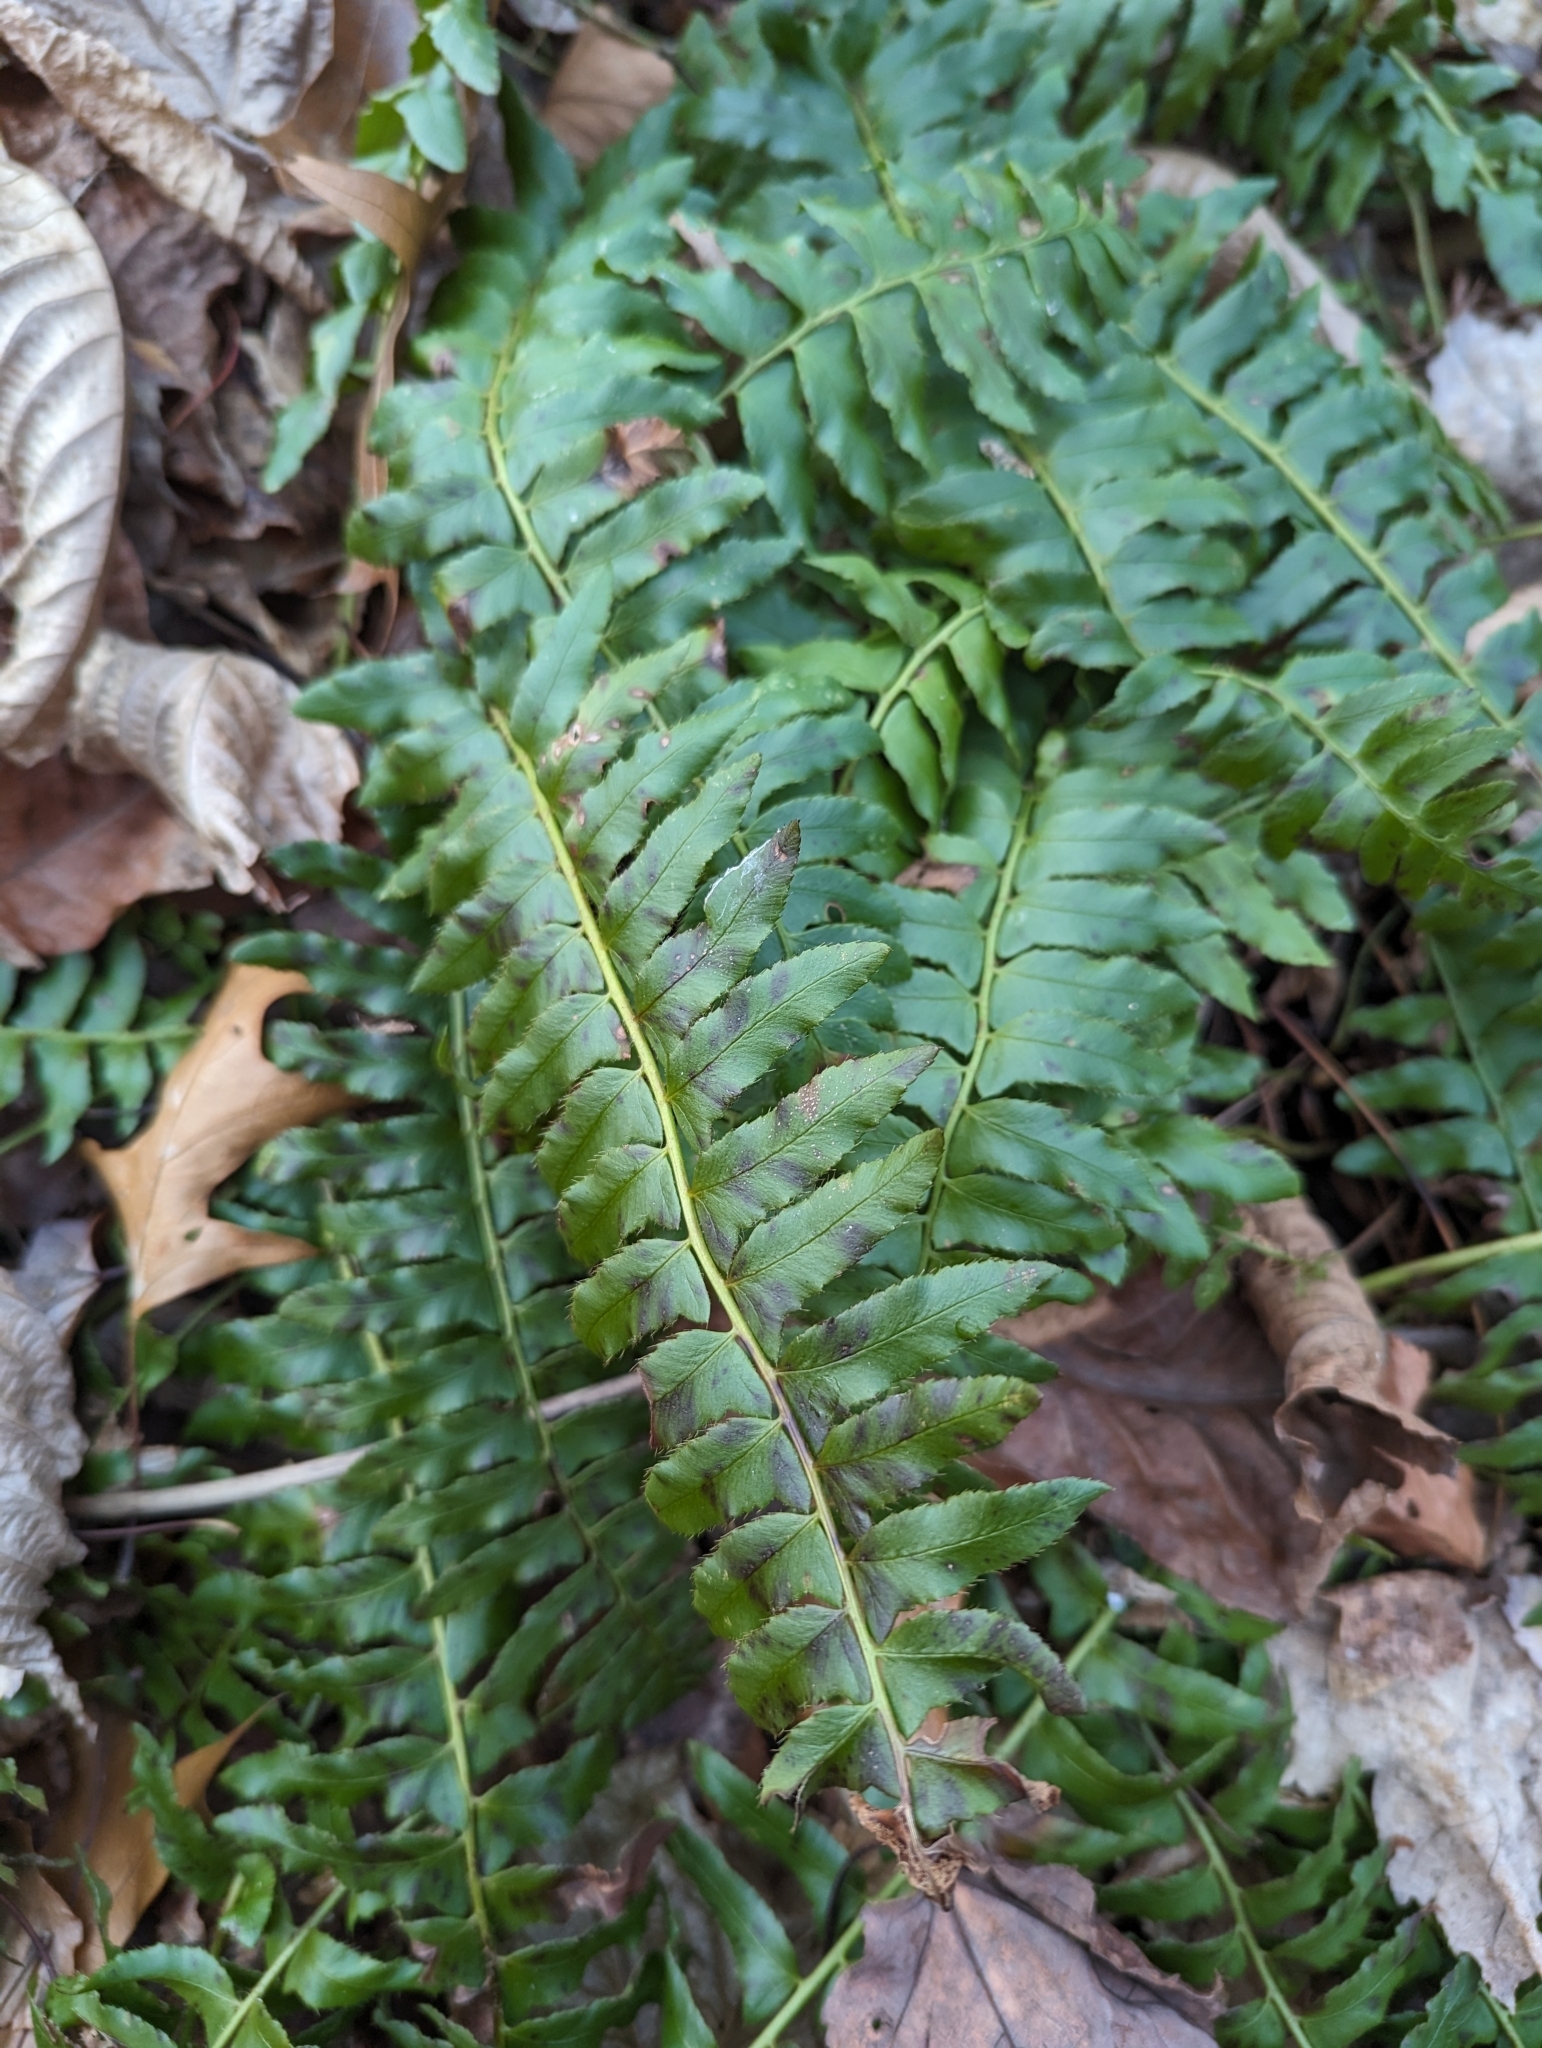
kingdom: Plantae
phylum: Tracheophyta
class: Polypodiopsida
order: Polypodiales
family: Dryopteridaceae
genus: Polystichum
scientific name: Polystichum acrostichoides
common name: Christmas fern
